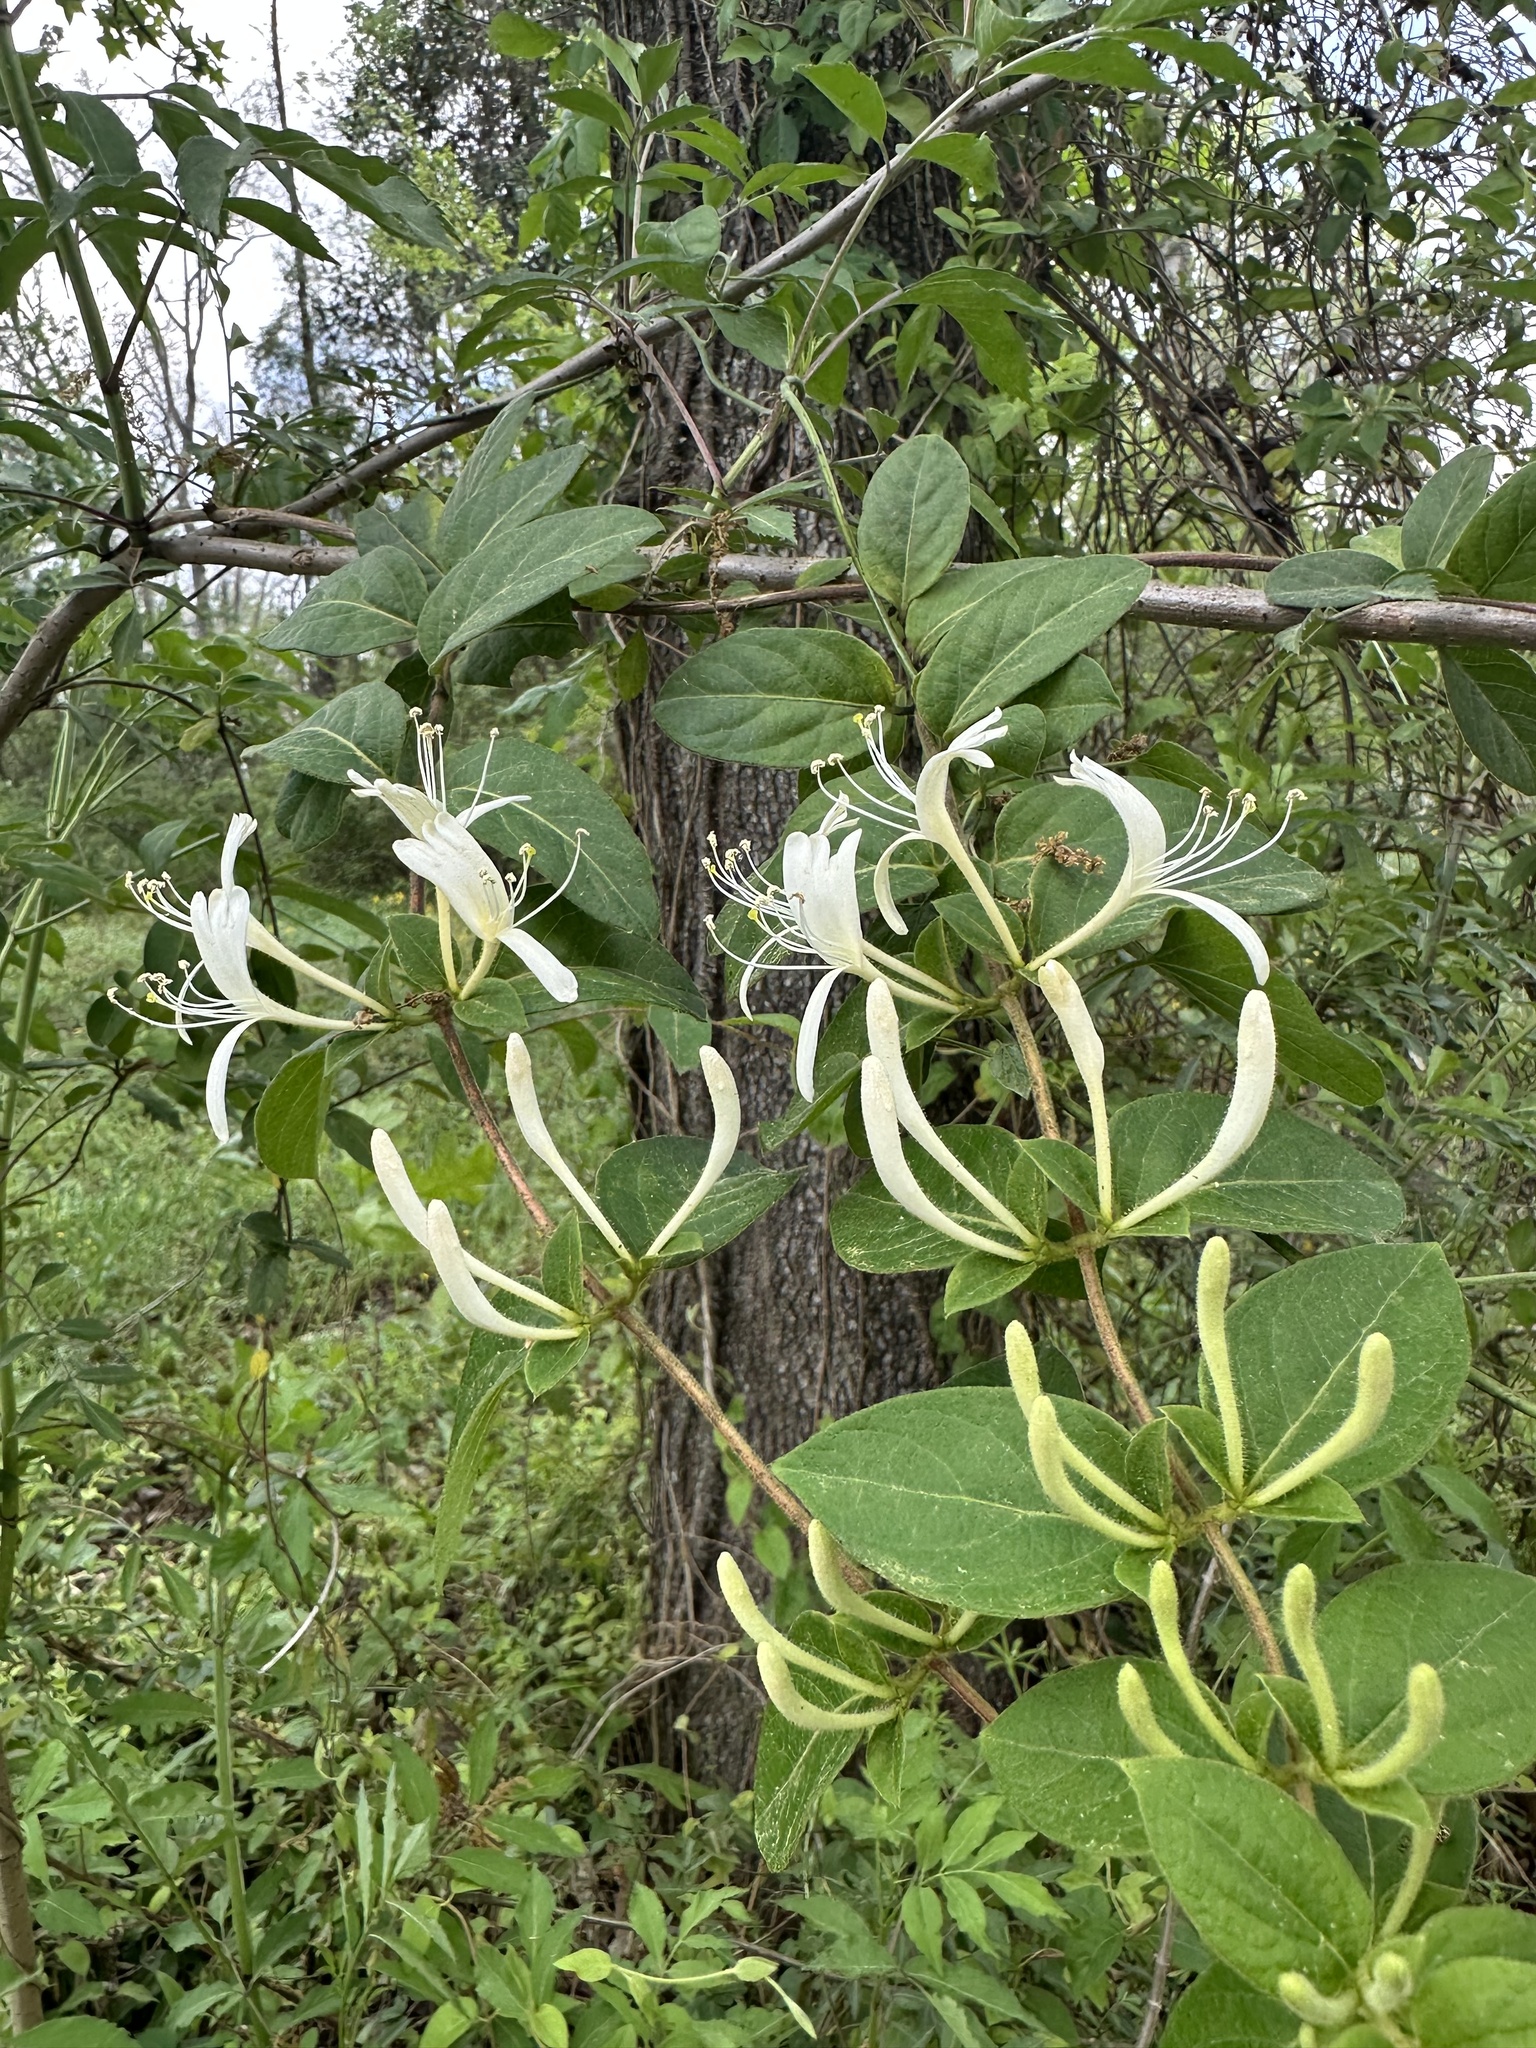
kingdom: Plantae
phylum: Tracheophyta
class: Magnoliopsida
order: Dipsacales
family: Caprifoliaceae
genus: Lonicera
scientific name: Lonicera japonica
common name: Japanese honeysuckle
